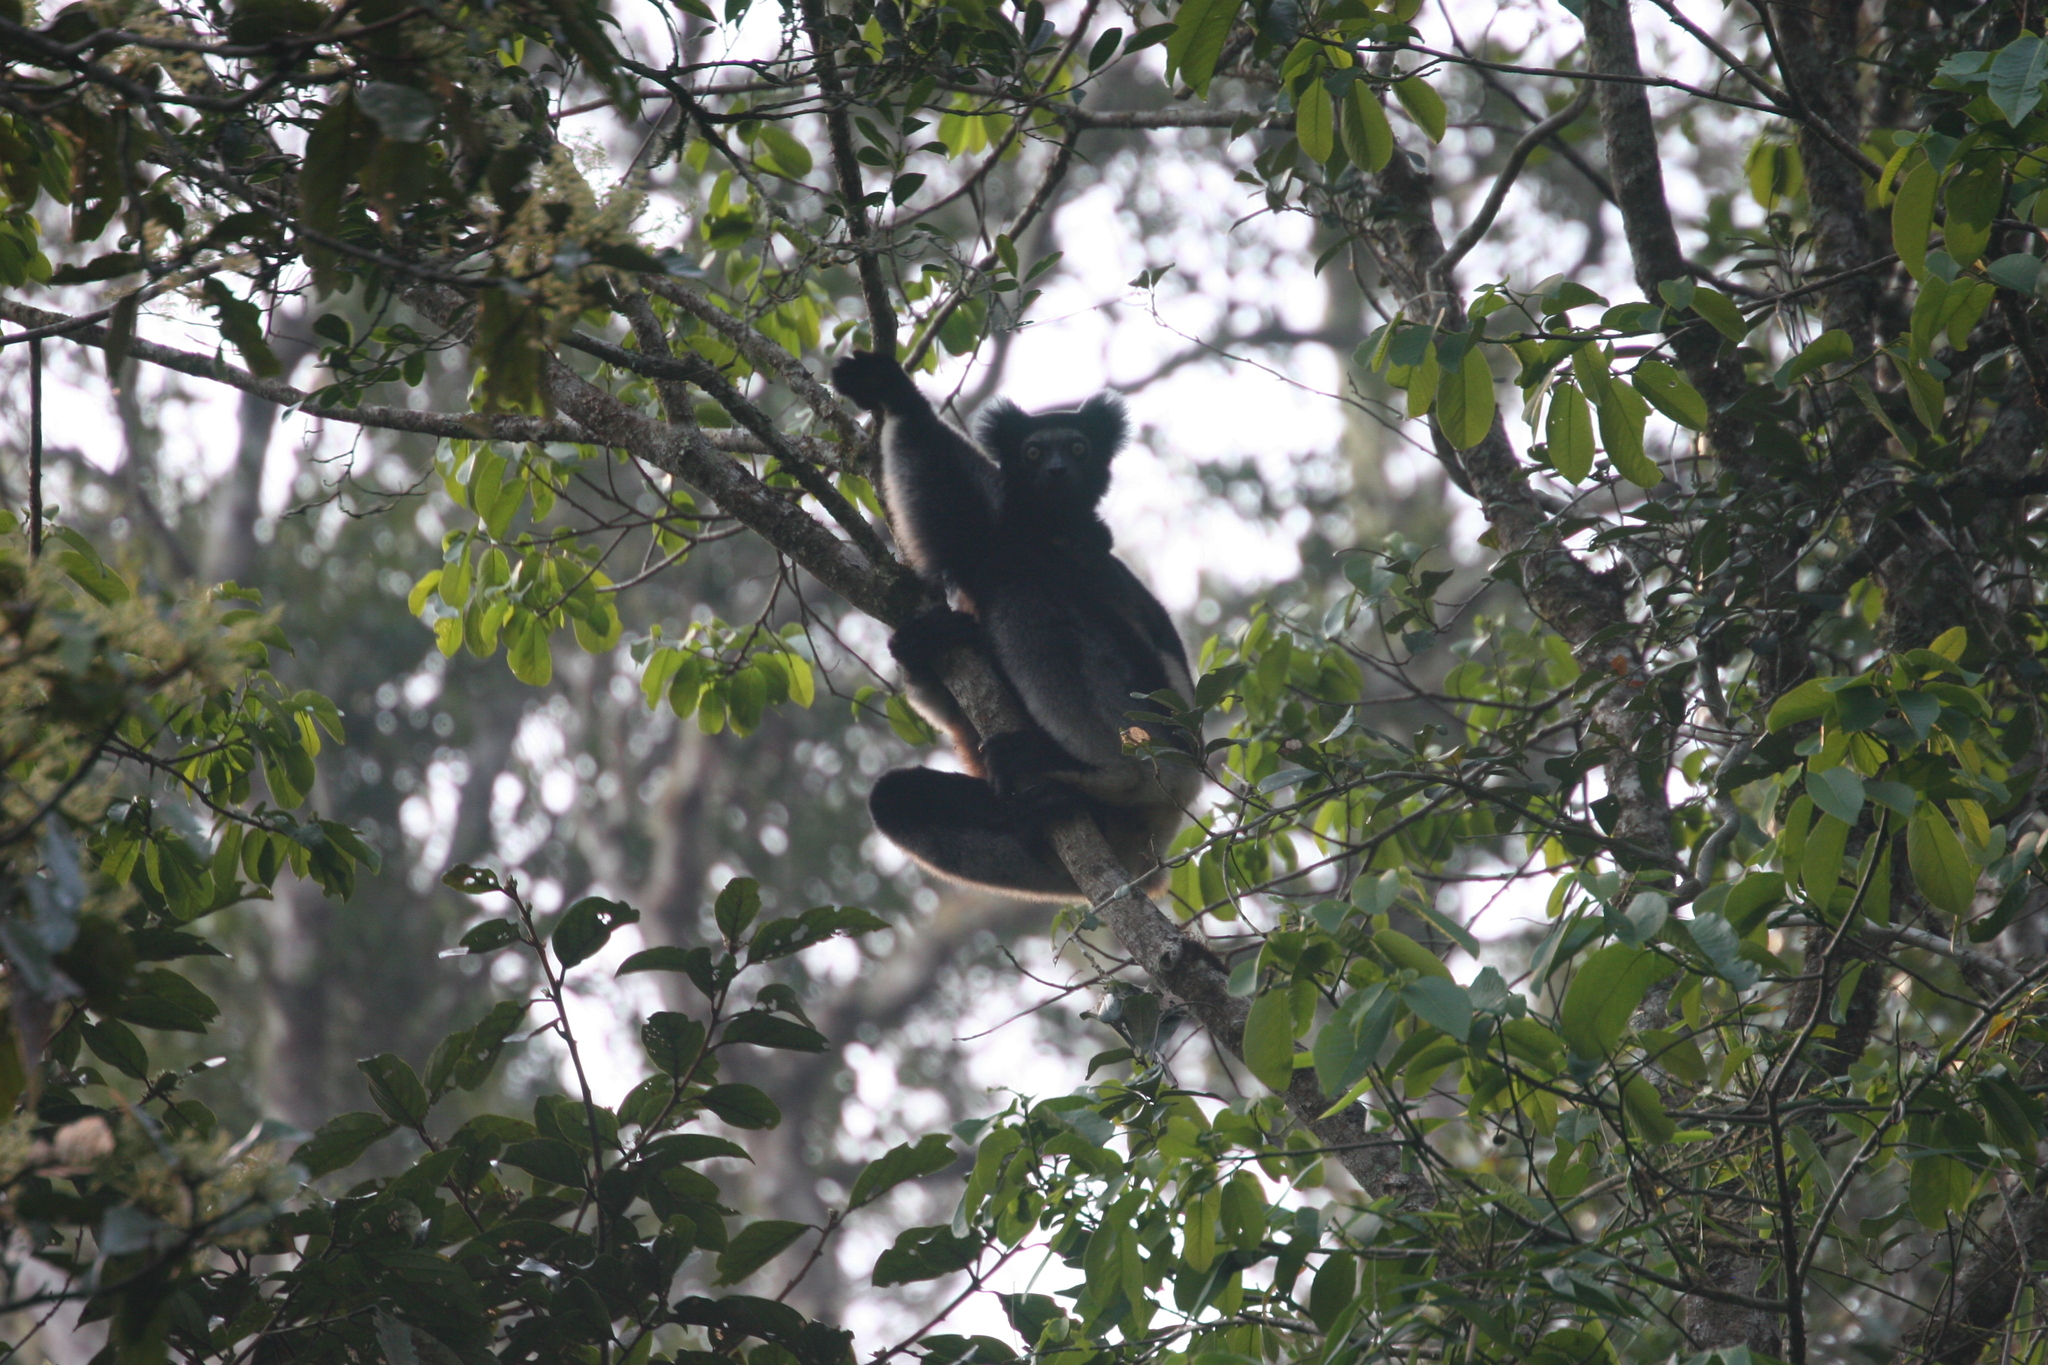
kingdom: Animalia
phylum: Chordata
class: Mammalia
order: Primates
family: Indriidae
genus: Indri
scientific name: Indri indri
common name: Indri
